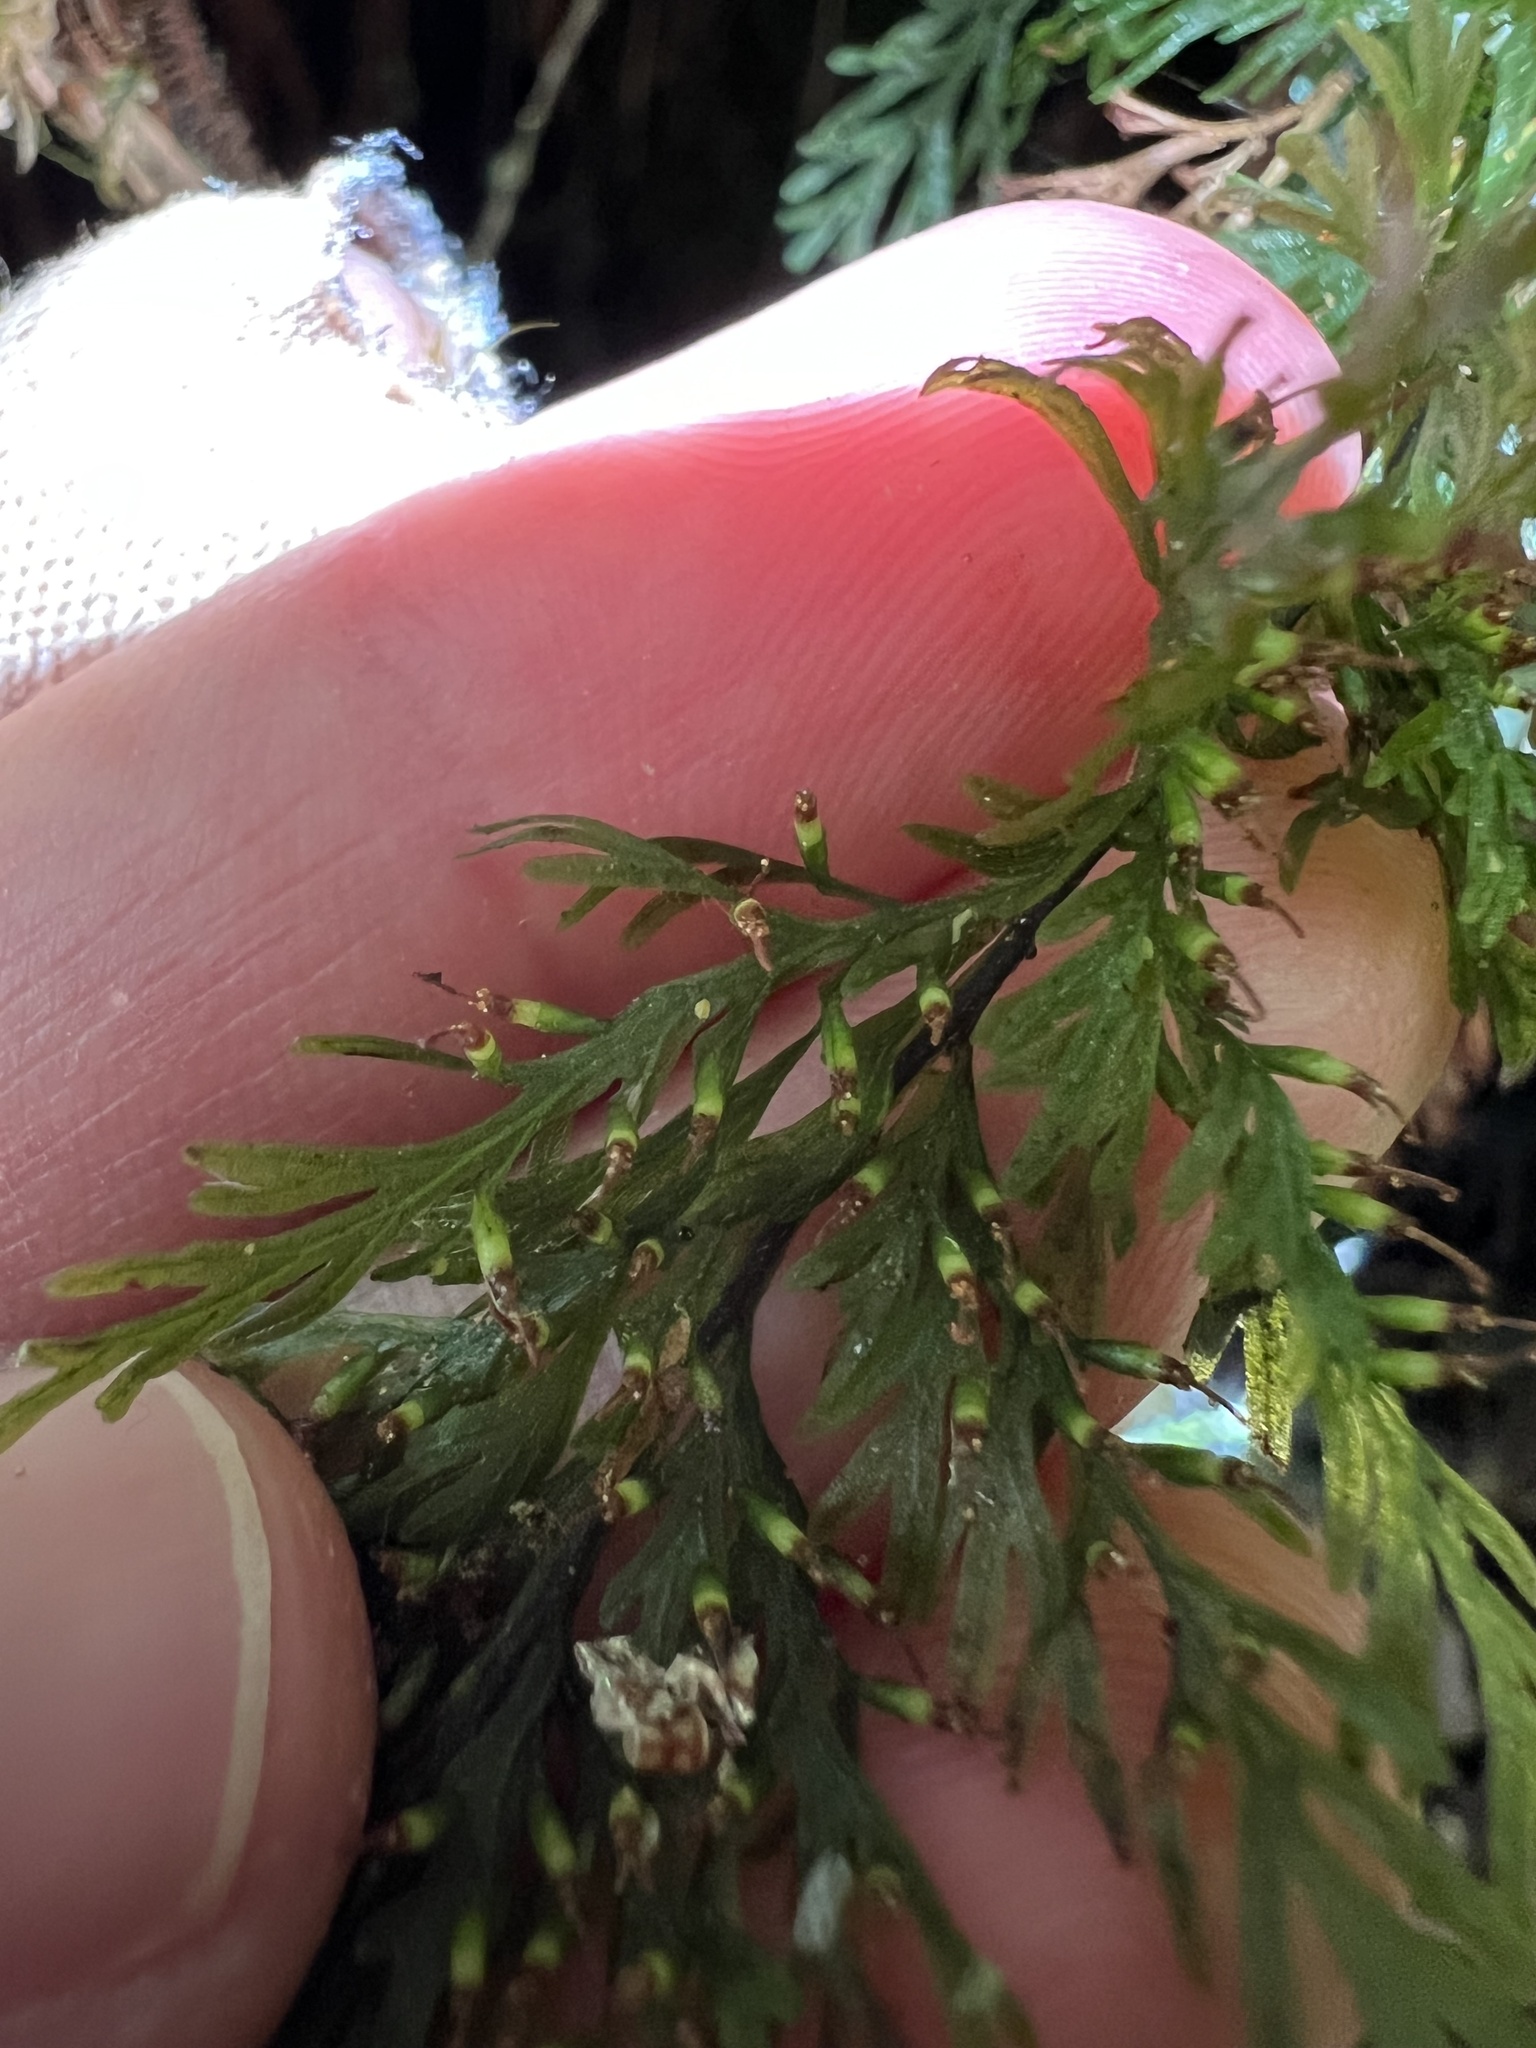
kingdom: Plantae
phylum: Tracheophyta
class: Polypodiopsida
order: Hymenophyllales
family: Hymenophyllaceae
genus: Abrodictyum
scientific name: Abrodictyum strictum
